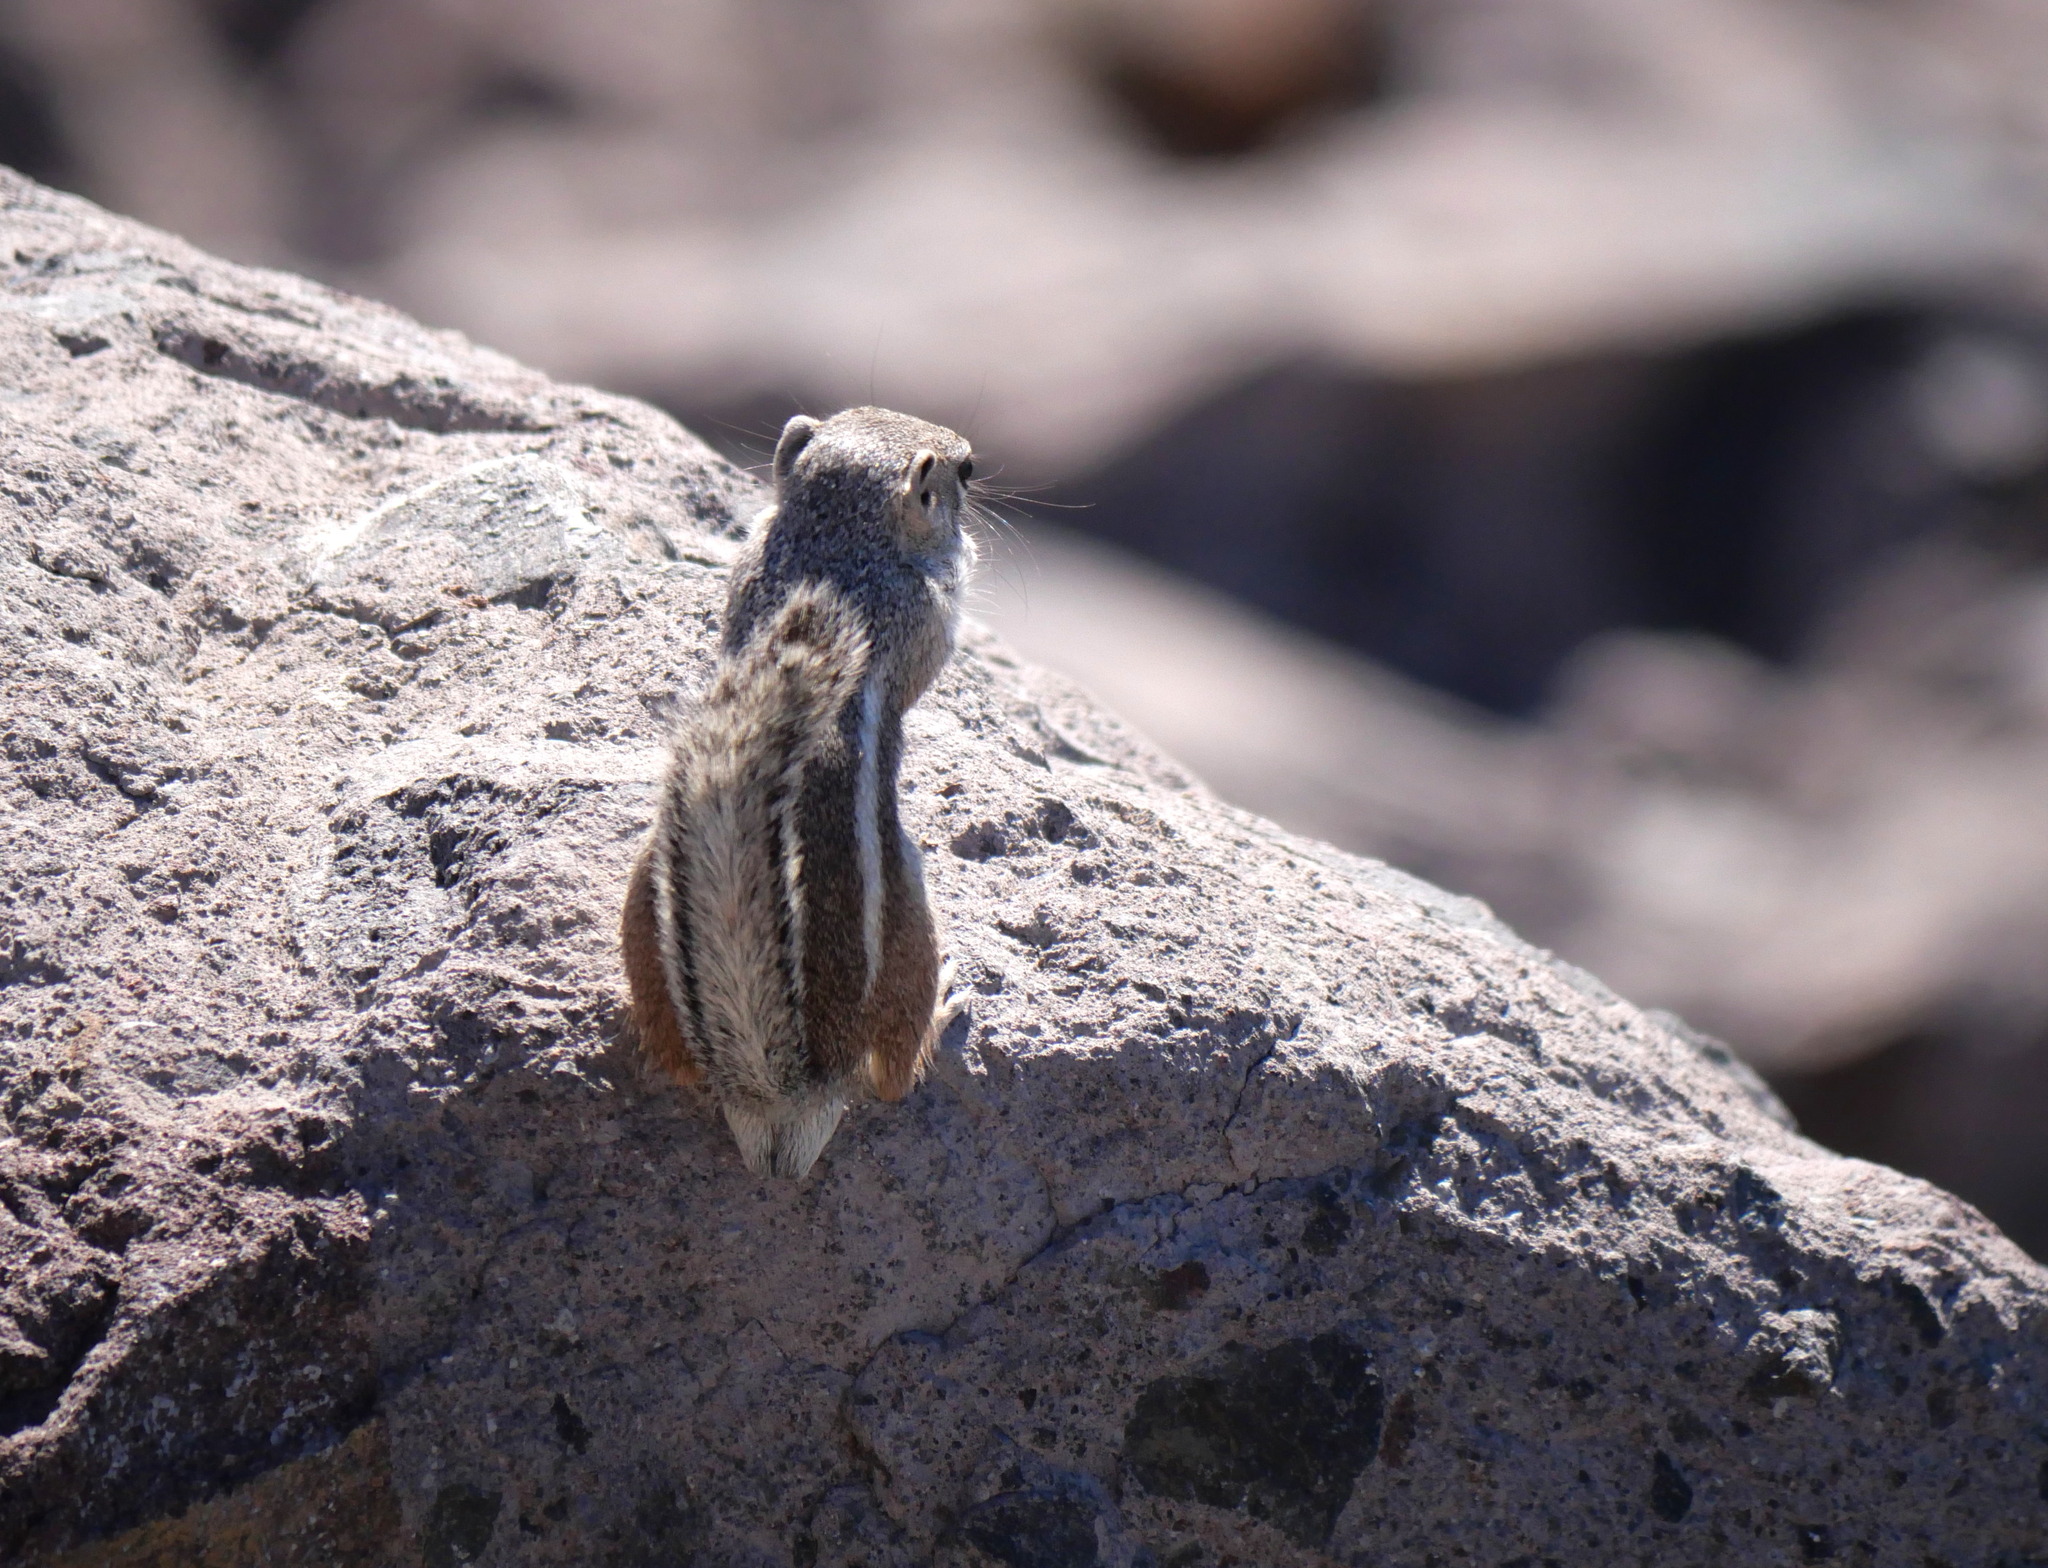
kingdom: Animalia
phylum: Chordata
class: Mammalia
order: Rodentia
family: Sciuridae
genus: Ammospermophilus
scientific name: Ammospermophilus leucurus
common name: White-tailed antelope squirrel
